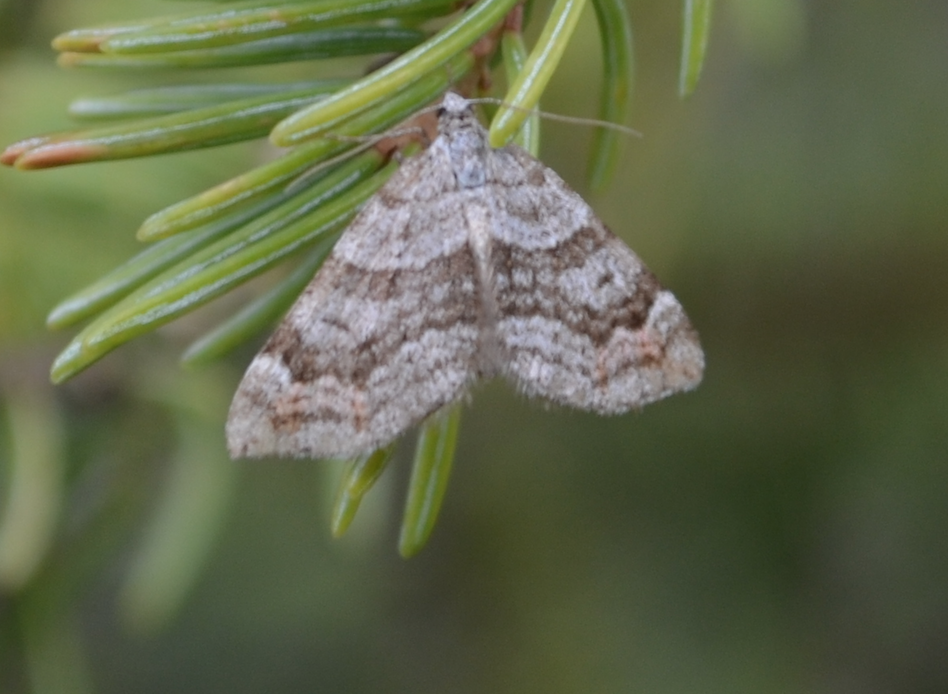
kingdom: Animalia
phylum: Arthropoda
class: Insecta
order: Lepidoptera
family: Geometridae
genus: Carsia
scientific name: Carsia sororiata
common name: Manchester treble-bar
